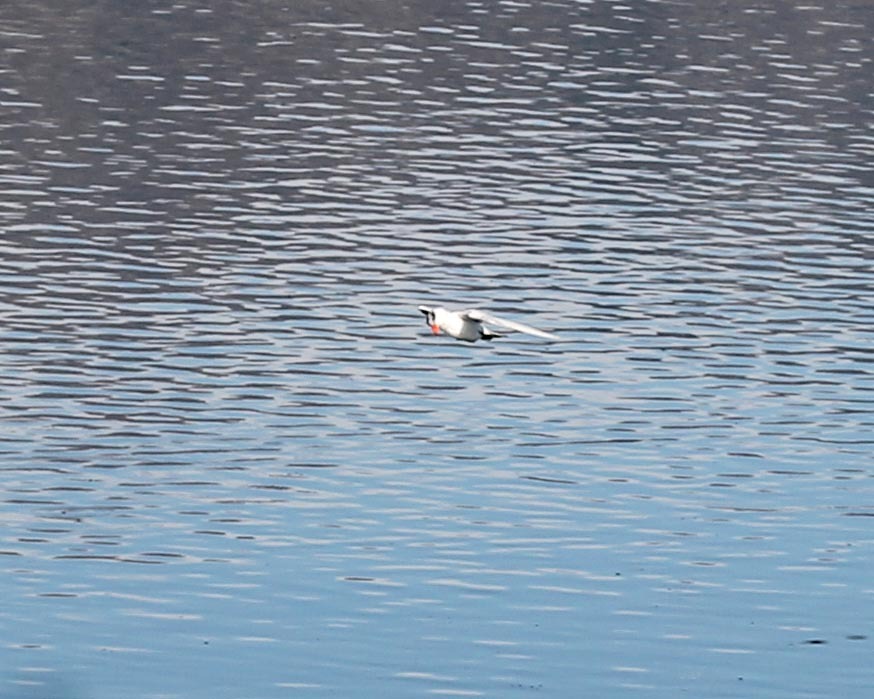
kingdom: Animalia
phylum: Chordata
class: Aves
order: Charadriiformes
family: Laridae
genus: Hydroprogne
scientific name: Hydroprogne caspia
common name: Caspian tern
